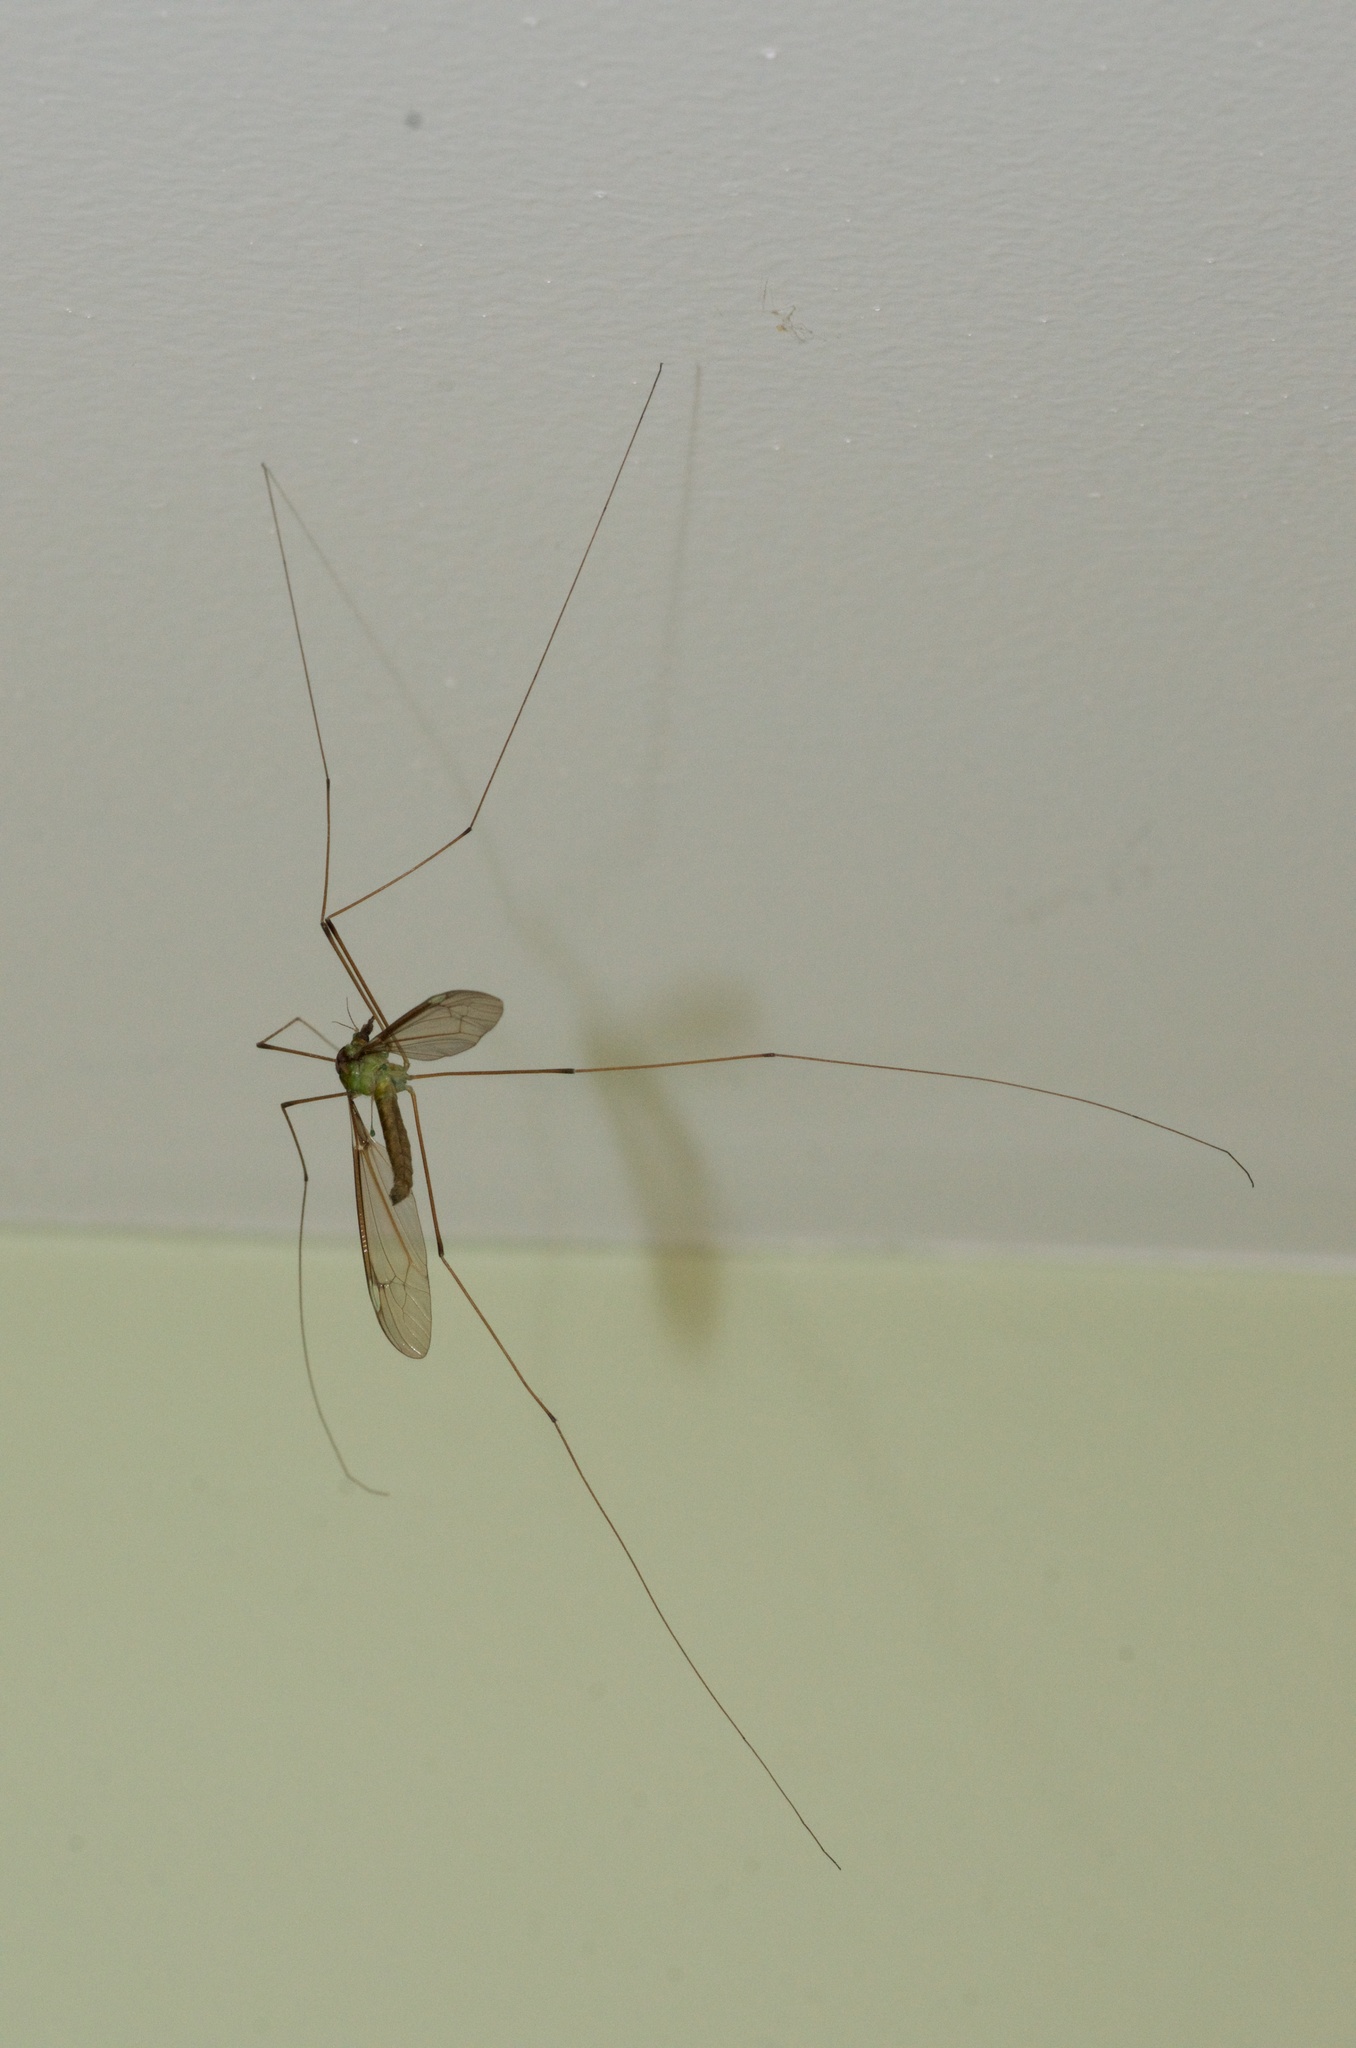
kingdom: Animalia
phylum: Arthropoda
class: Insecta
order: Diptera
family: Tipulidae
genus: Leptotarsus
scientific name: Leptotarsus albistigma
